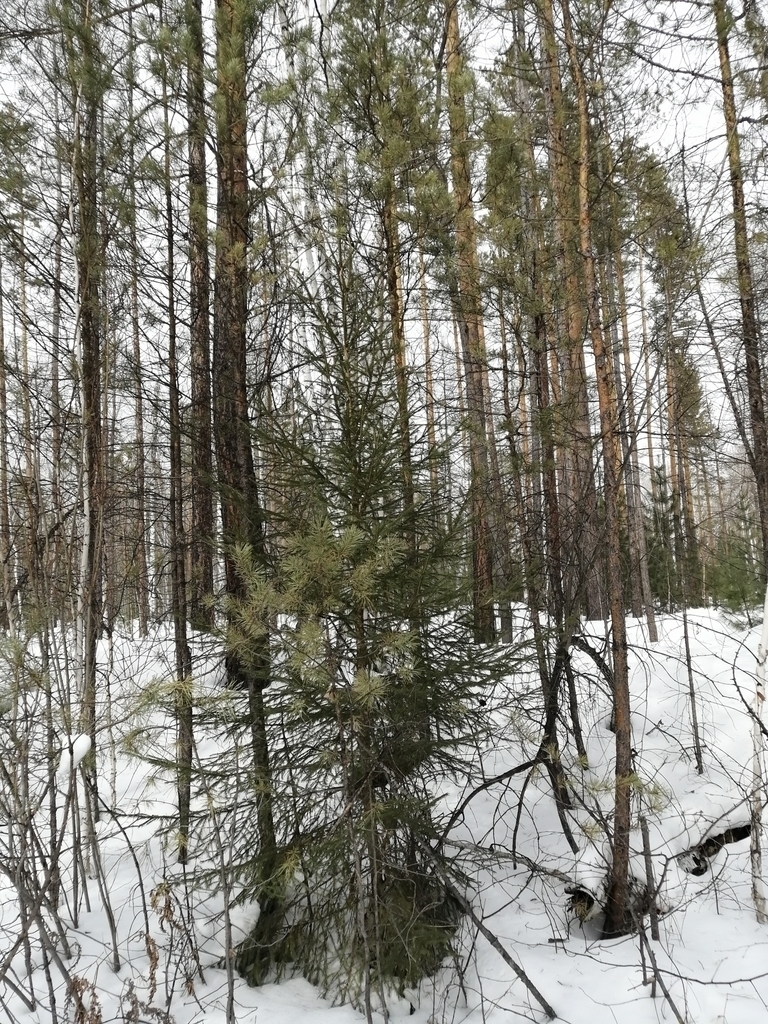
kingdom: Plantae
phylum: Tracheophyta
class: Pinopsida
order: Pinales
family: Pinaceae
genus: Pinus
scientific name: Pinus sylvestris
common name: Scots pine
